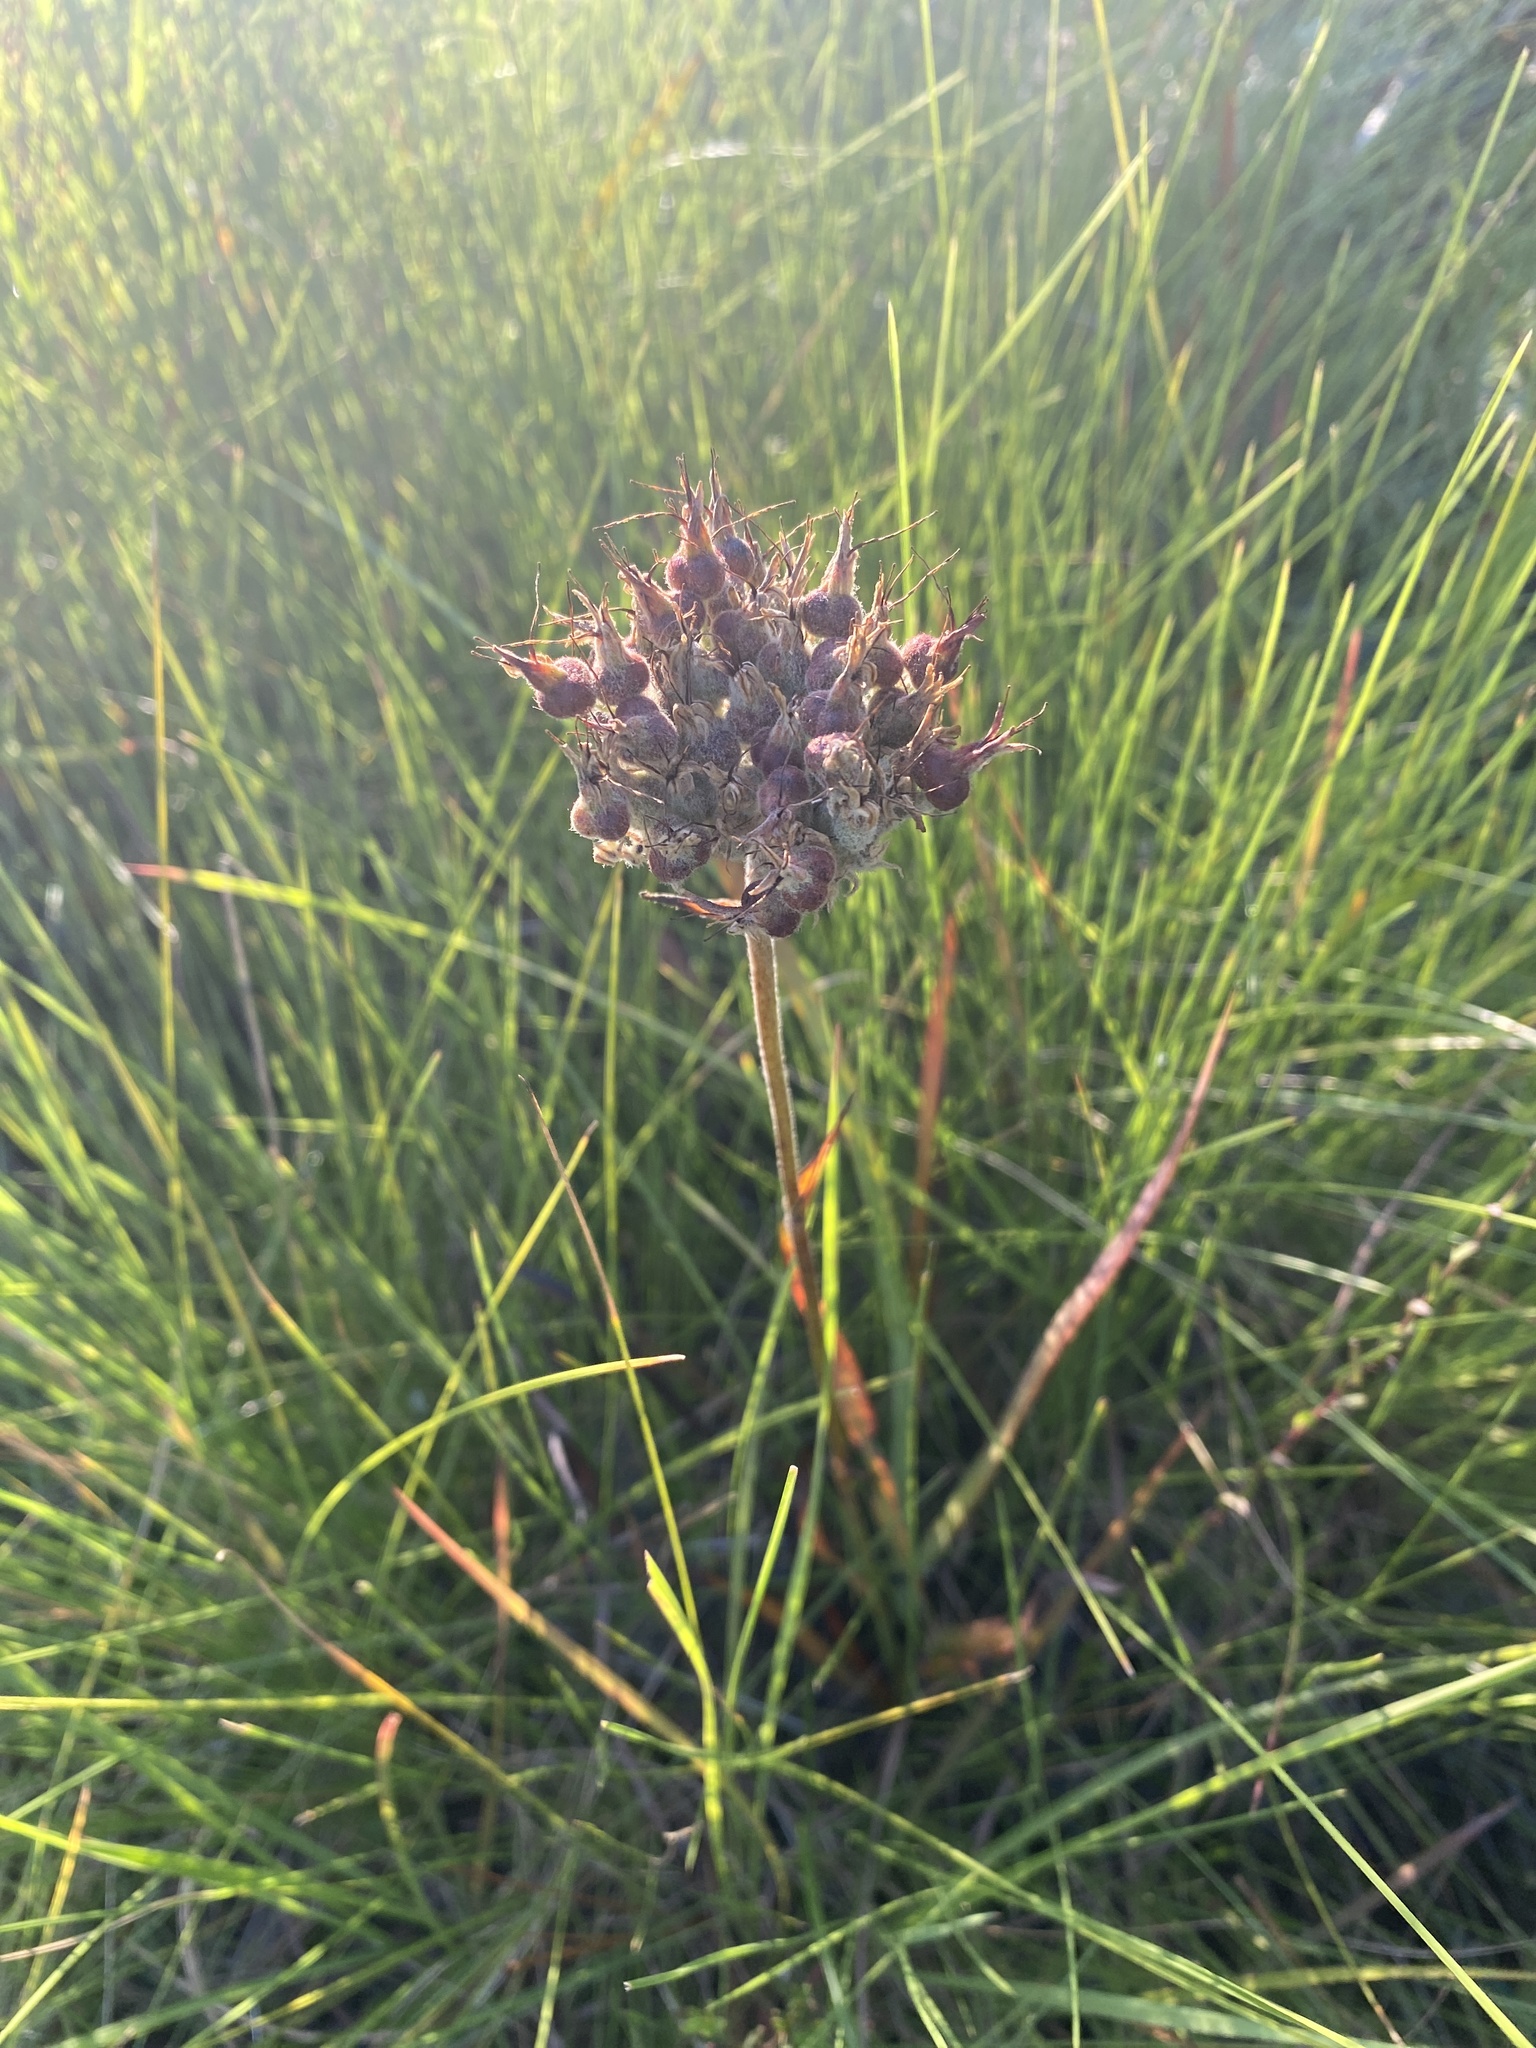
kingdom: Plantae
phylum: Tracheophyta
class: Liliopsida
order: Commelinales
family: Haemodoraceae
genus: Lachnanthes
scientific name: Lachnanthes caroliana
